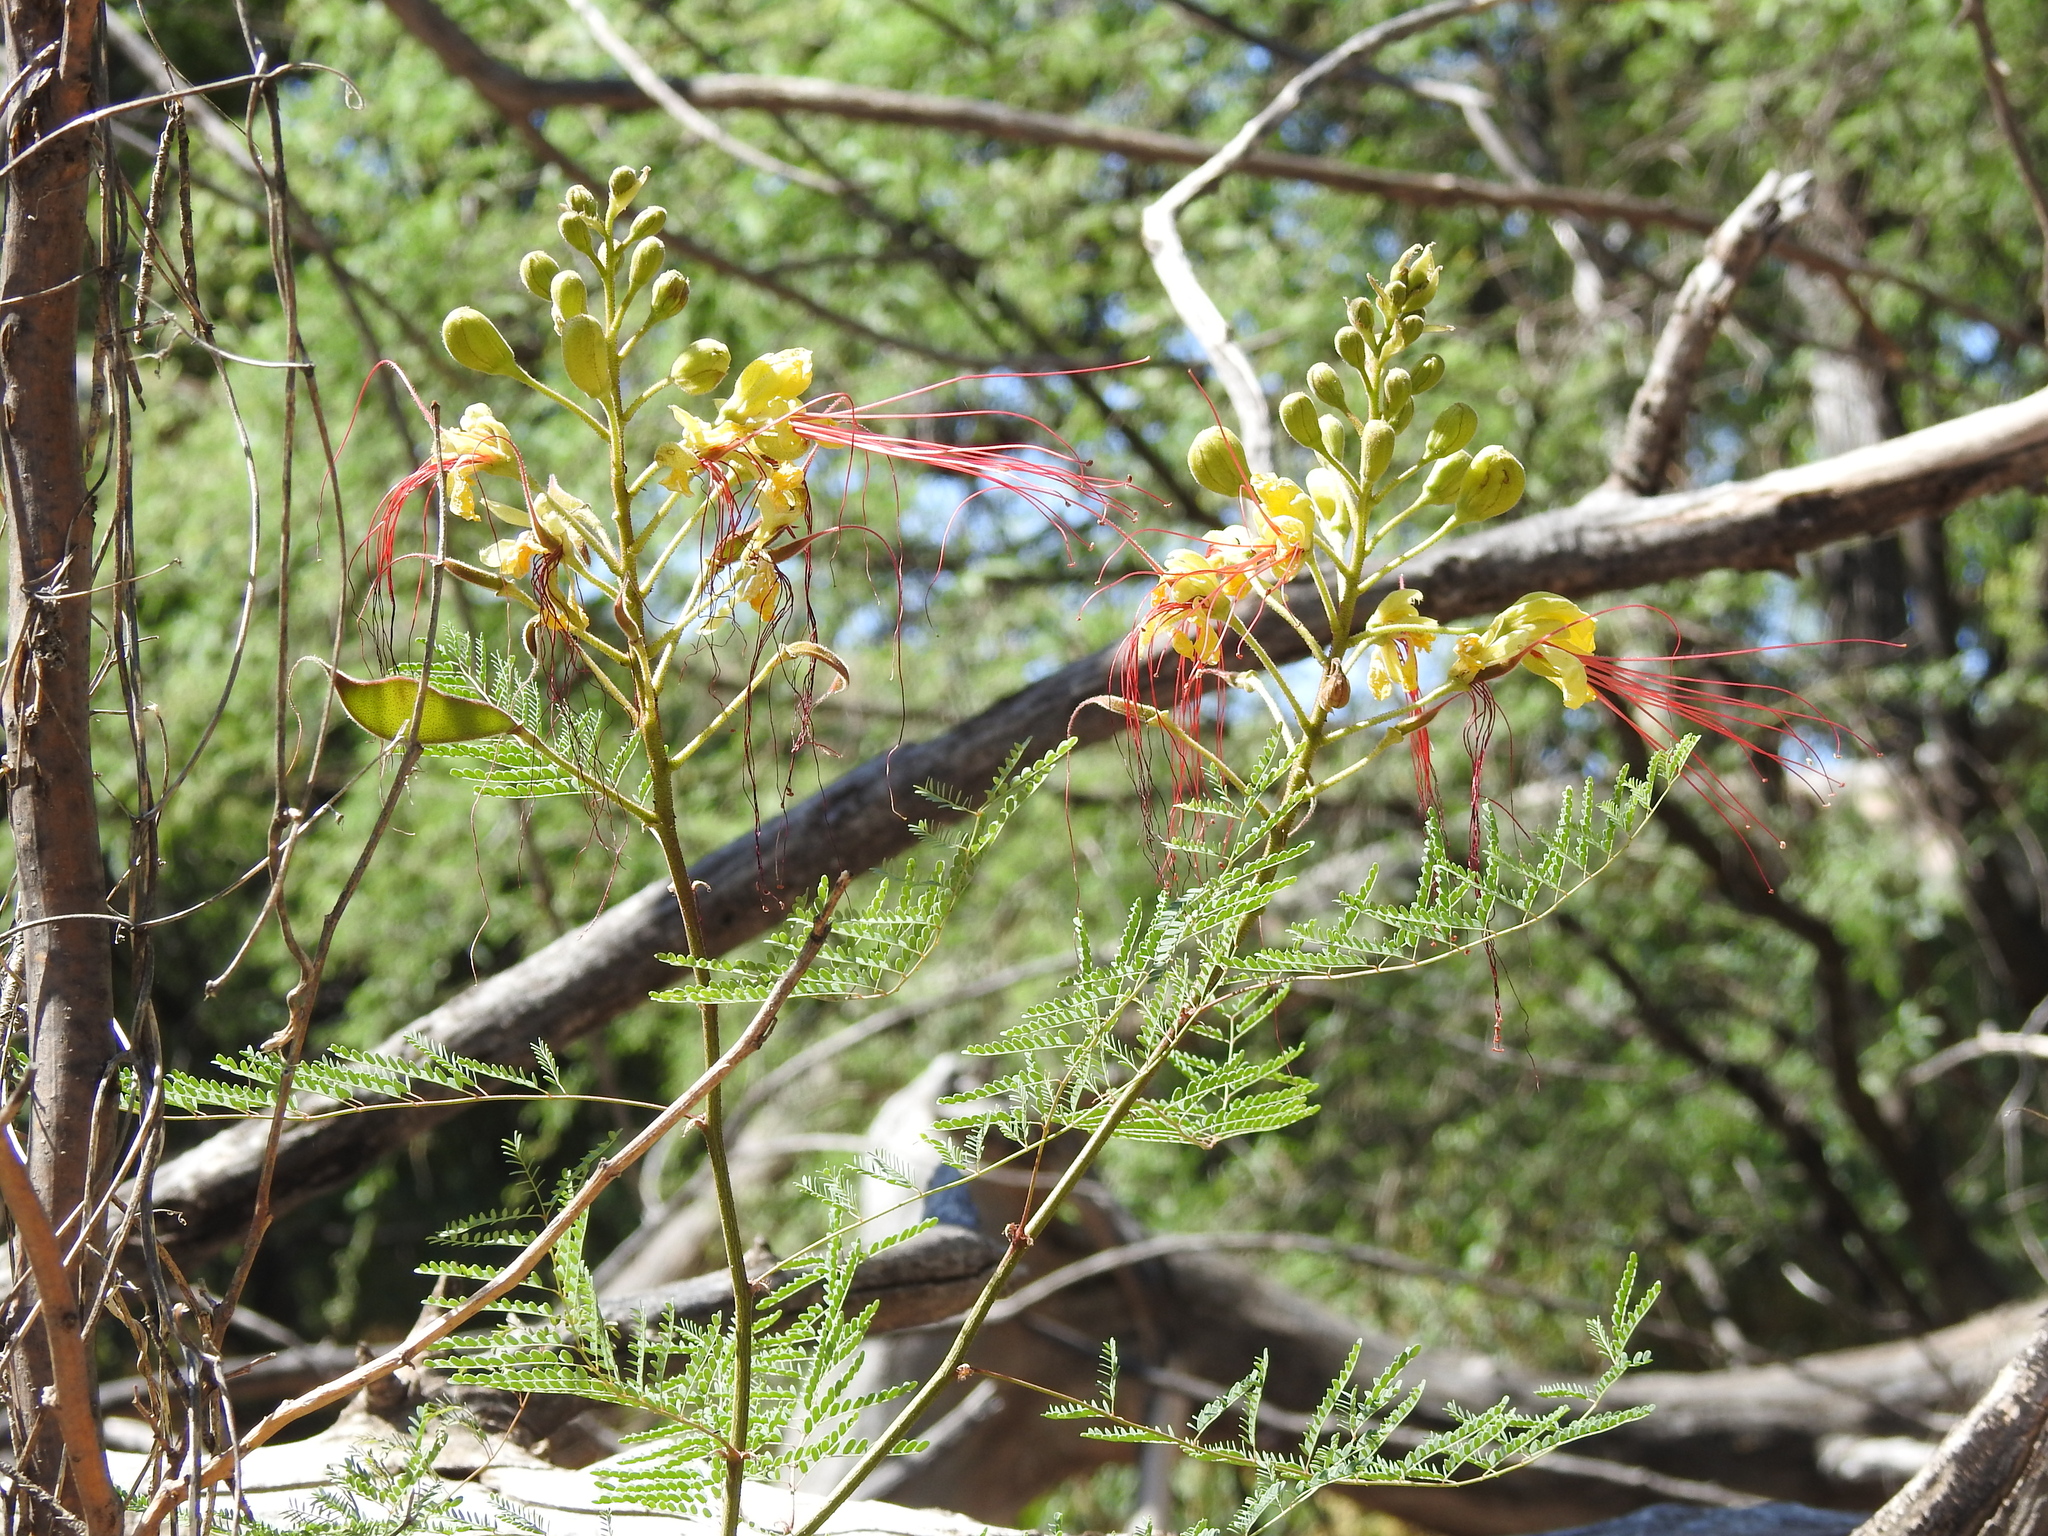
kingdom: Plantae
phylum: Tracheophyta
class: Magnoliopsida
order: Fabales
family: Fabaceae
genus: Erythrostemon
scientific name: Erythrostemon gilliesii
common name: Bird-of-paradise shrub
